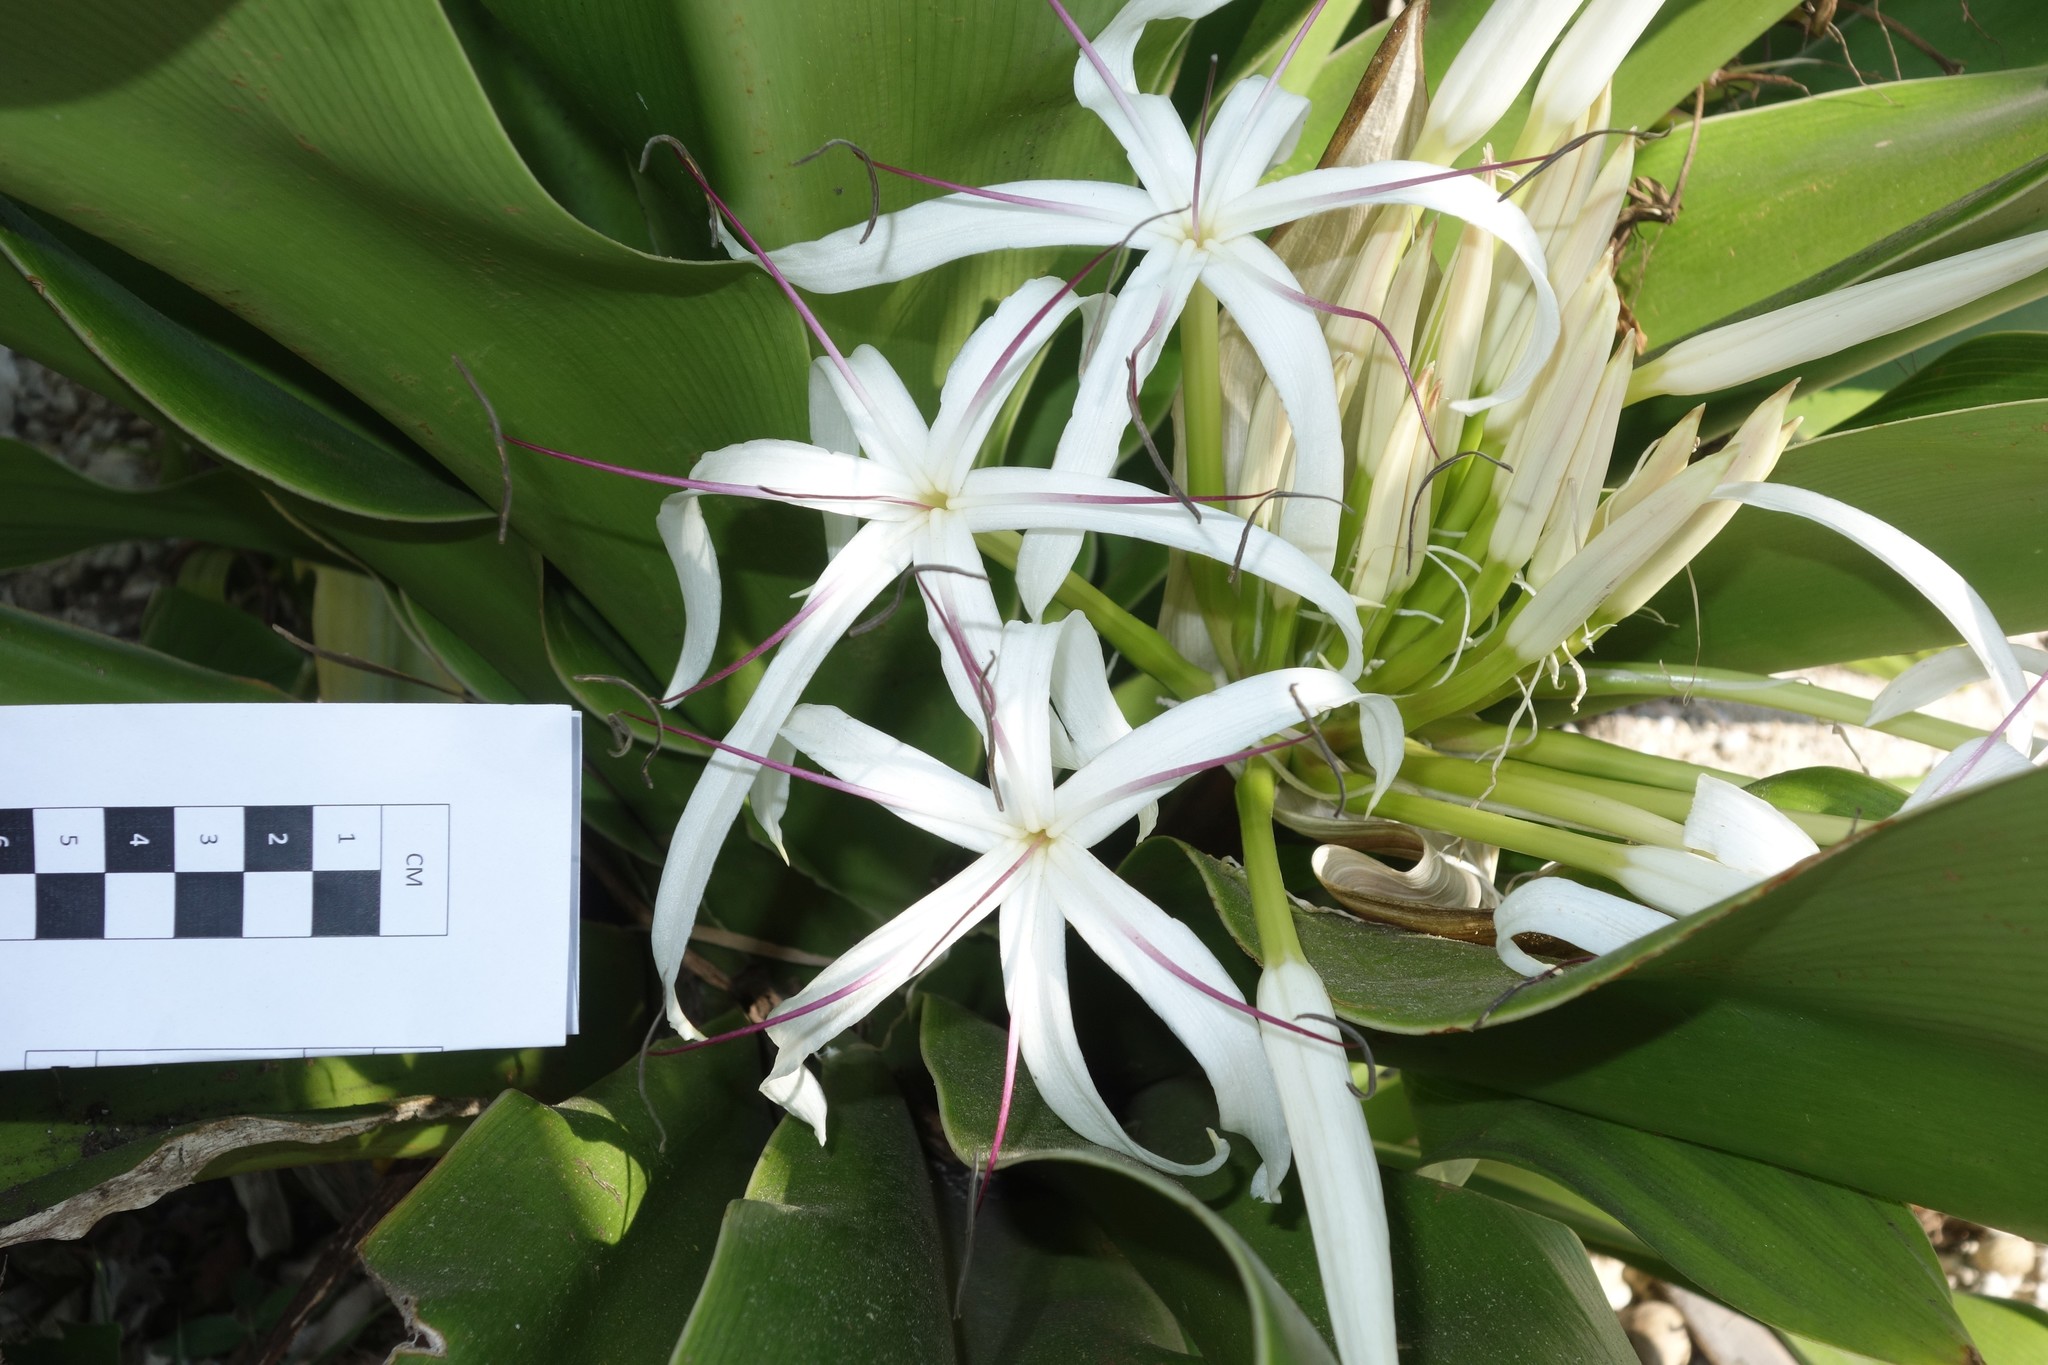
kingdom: Plantae
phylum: Tracheophyta
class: Liliopsida
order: Asparagales
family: Amaryllidaceae
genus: Crinum
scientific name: Crinum asiaticum
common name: Poisonbulb
